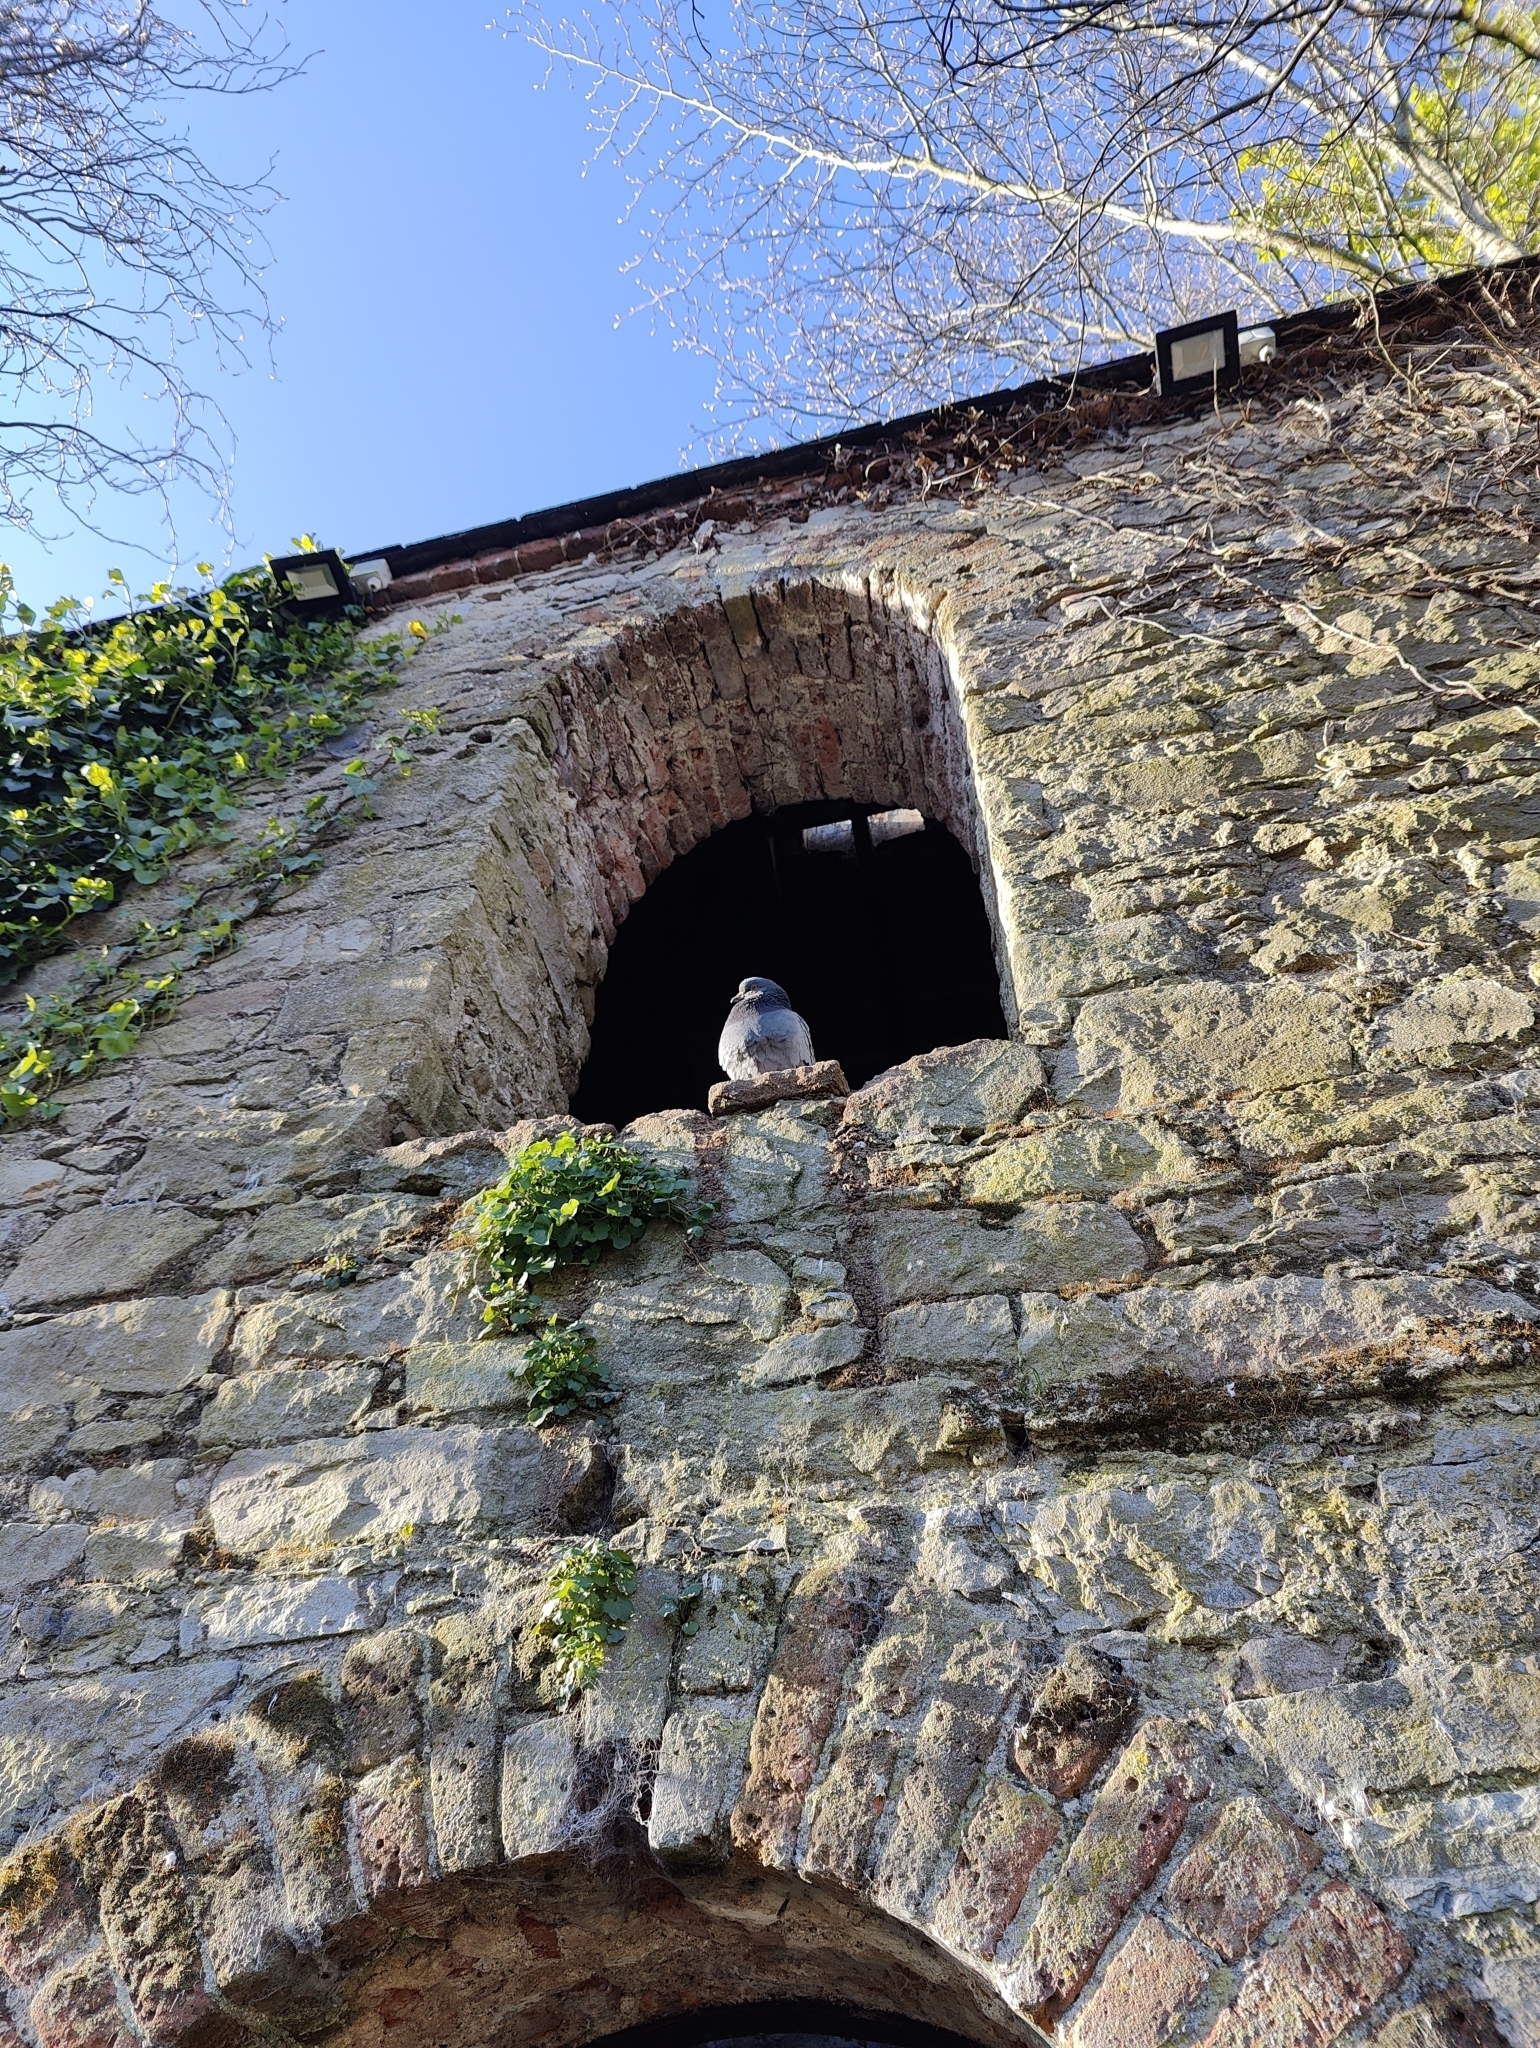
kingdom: Animalia
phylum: Chordata
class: Aves
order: Columbiformes
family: Columbidae
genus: Columba
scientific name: Columba livia
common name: Rock pigeon
